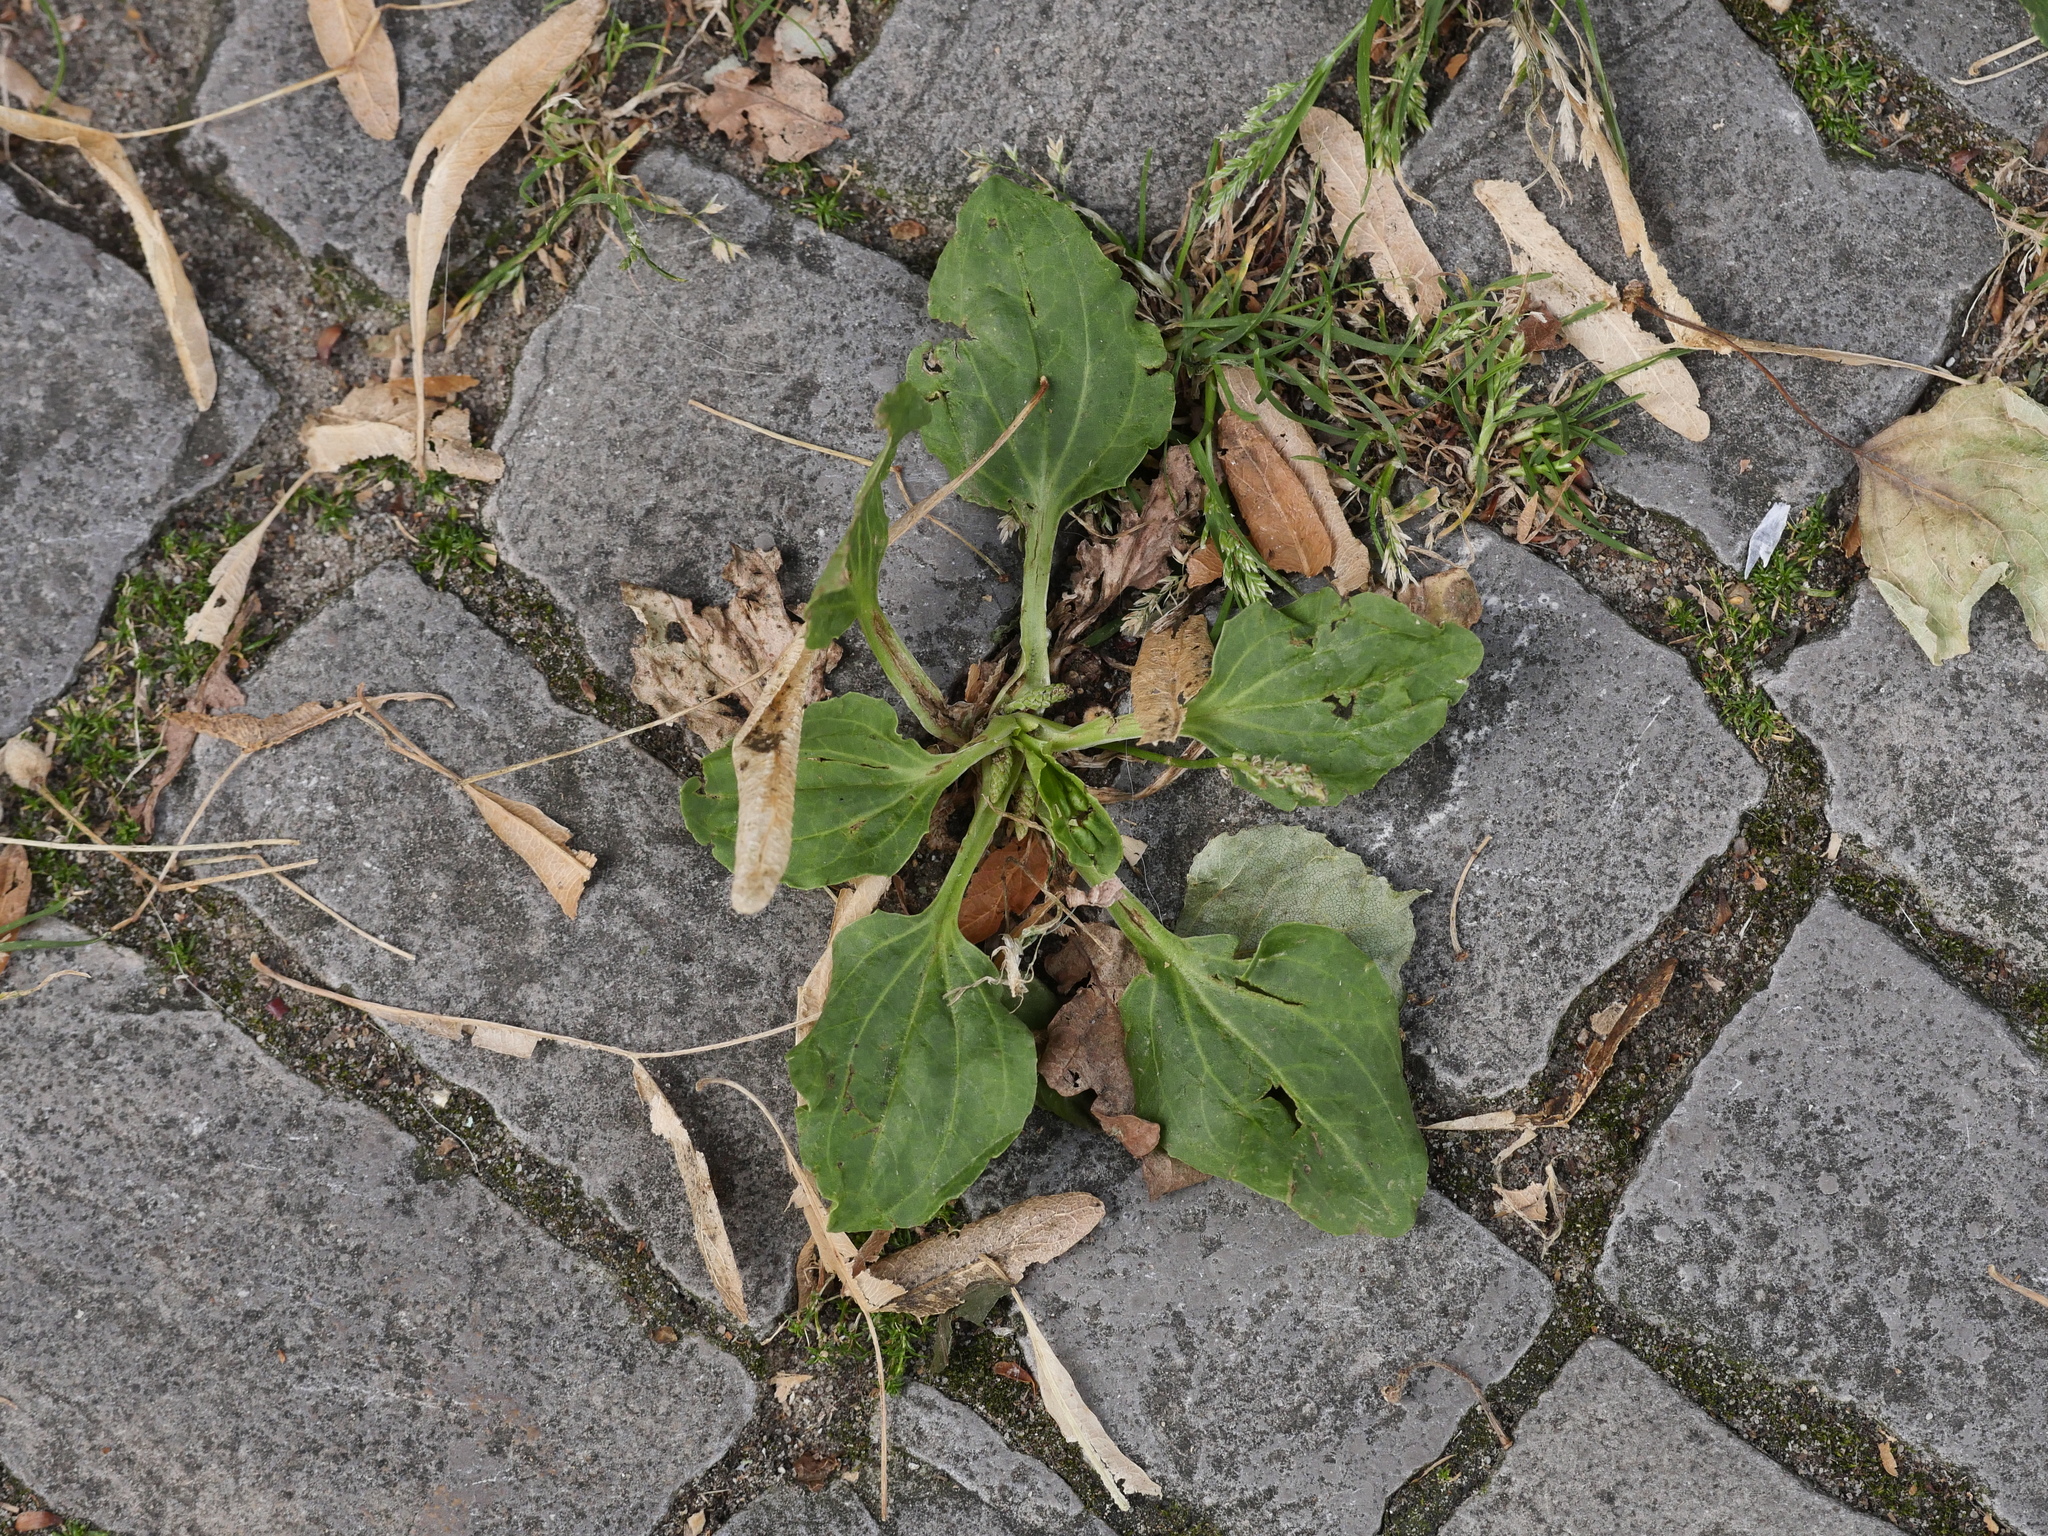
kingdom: Plantae
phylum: Tracheophyta
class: Magnoliopsida
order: Lamiales
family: Plantaginaceae
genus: Plantago
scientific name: Plantago major
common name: Common plantain
